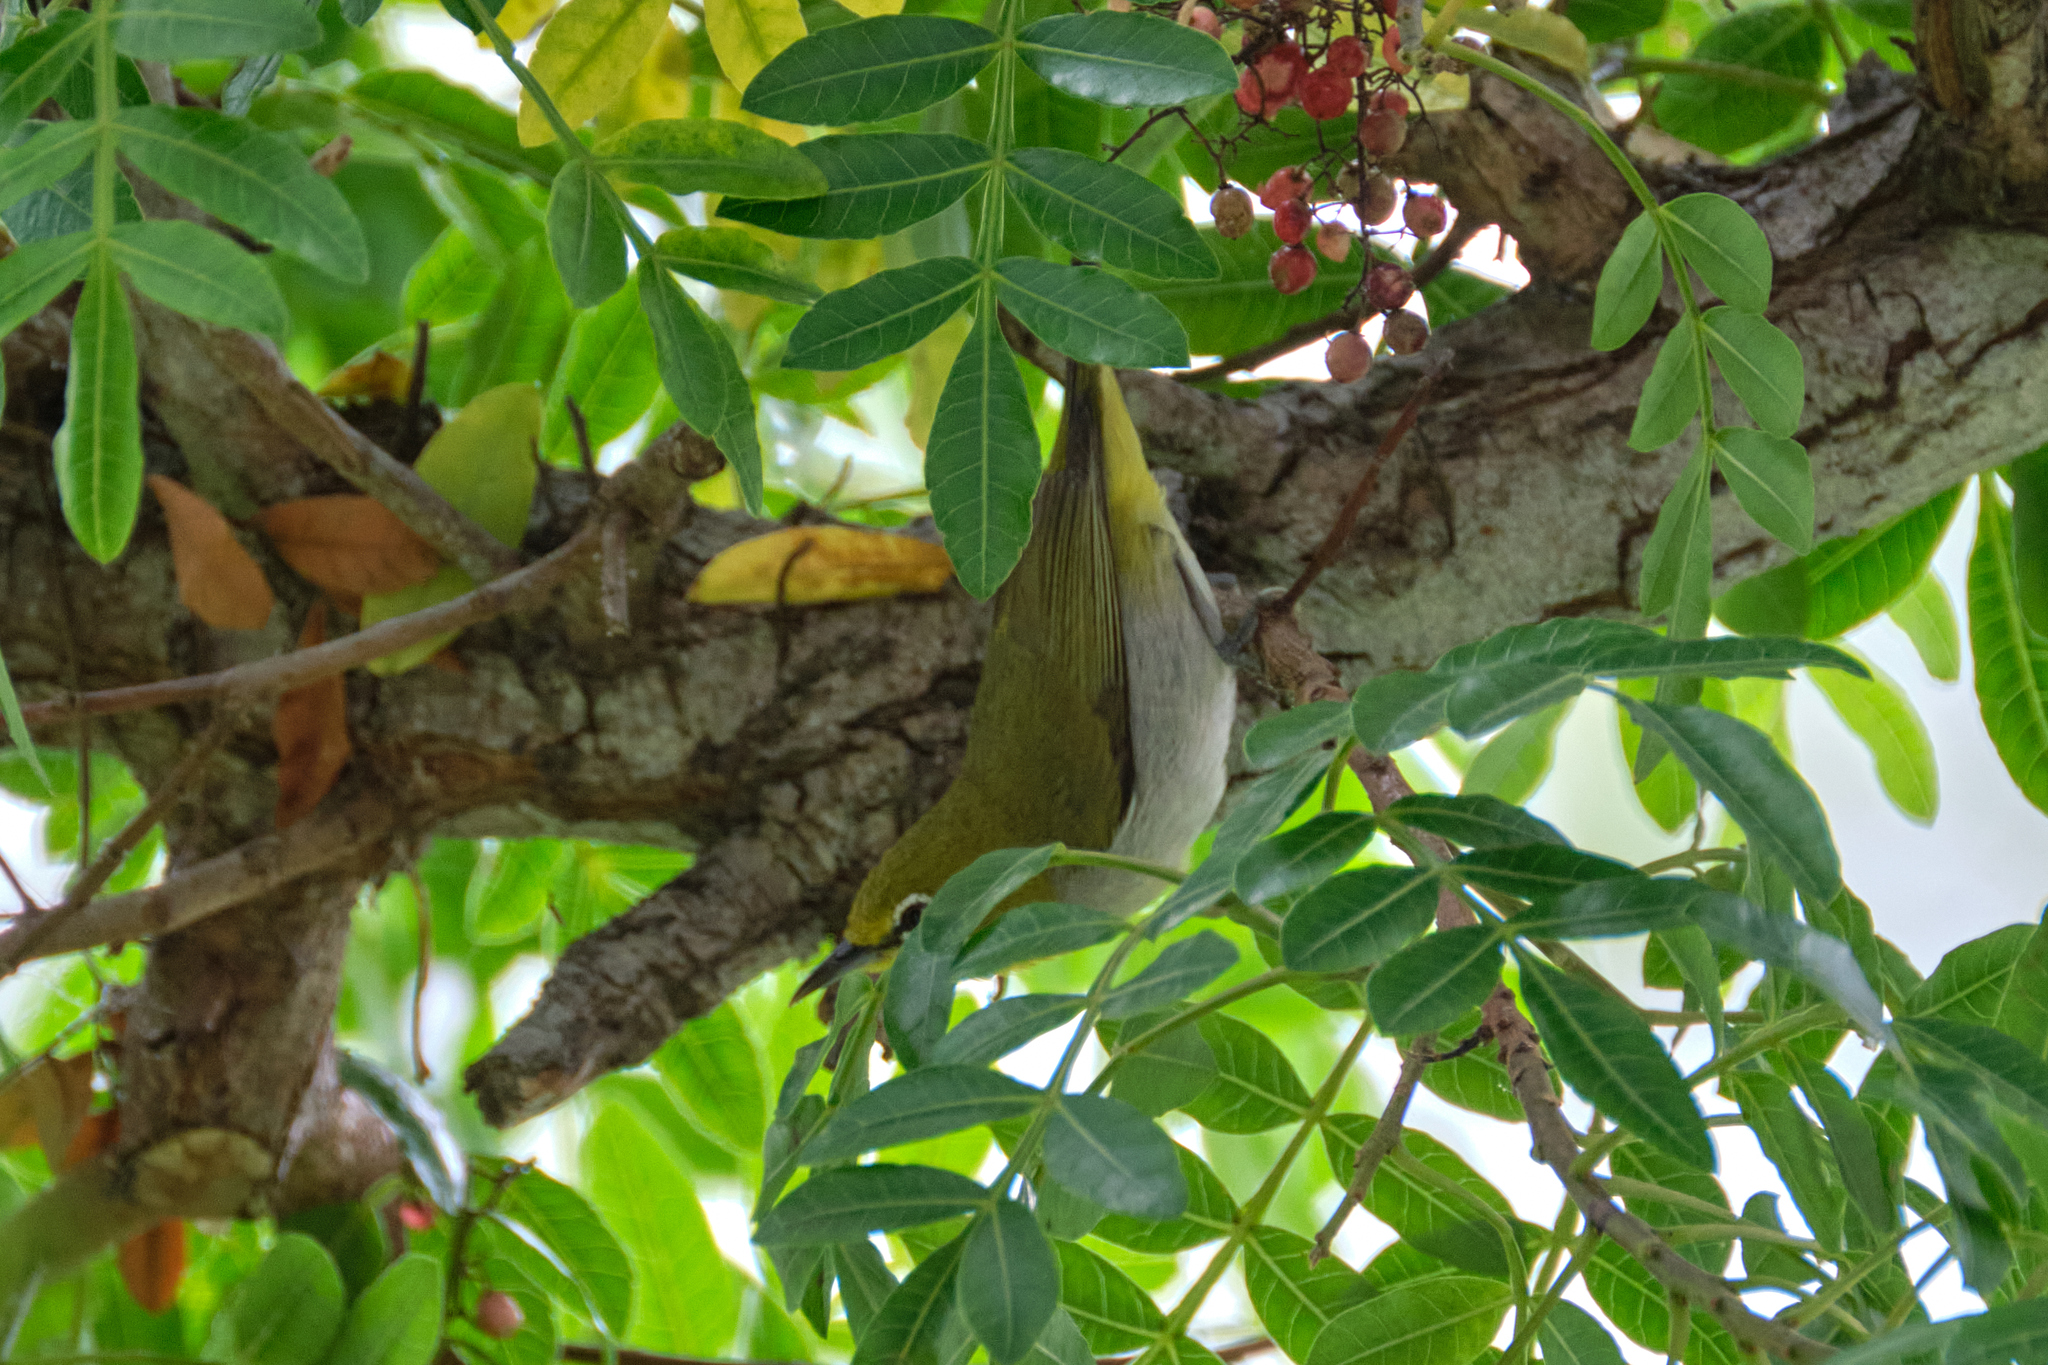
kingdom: Animalia
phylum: Chordata
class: Aves
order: Passeriformes
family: Zosteropidae
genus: Zosterops
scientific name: Zosterops simplex
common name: Swinhoe's white-eye
